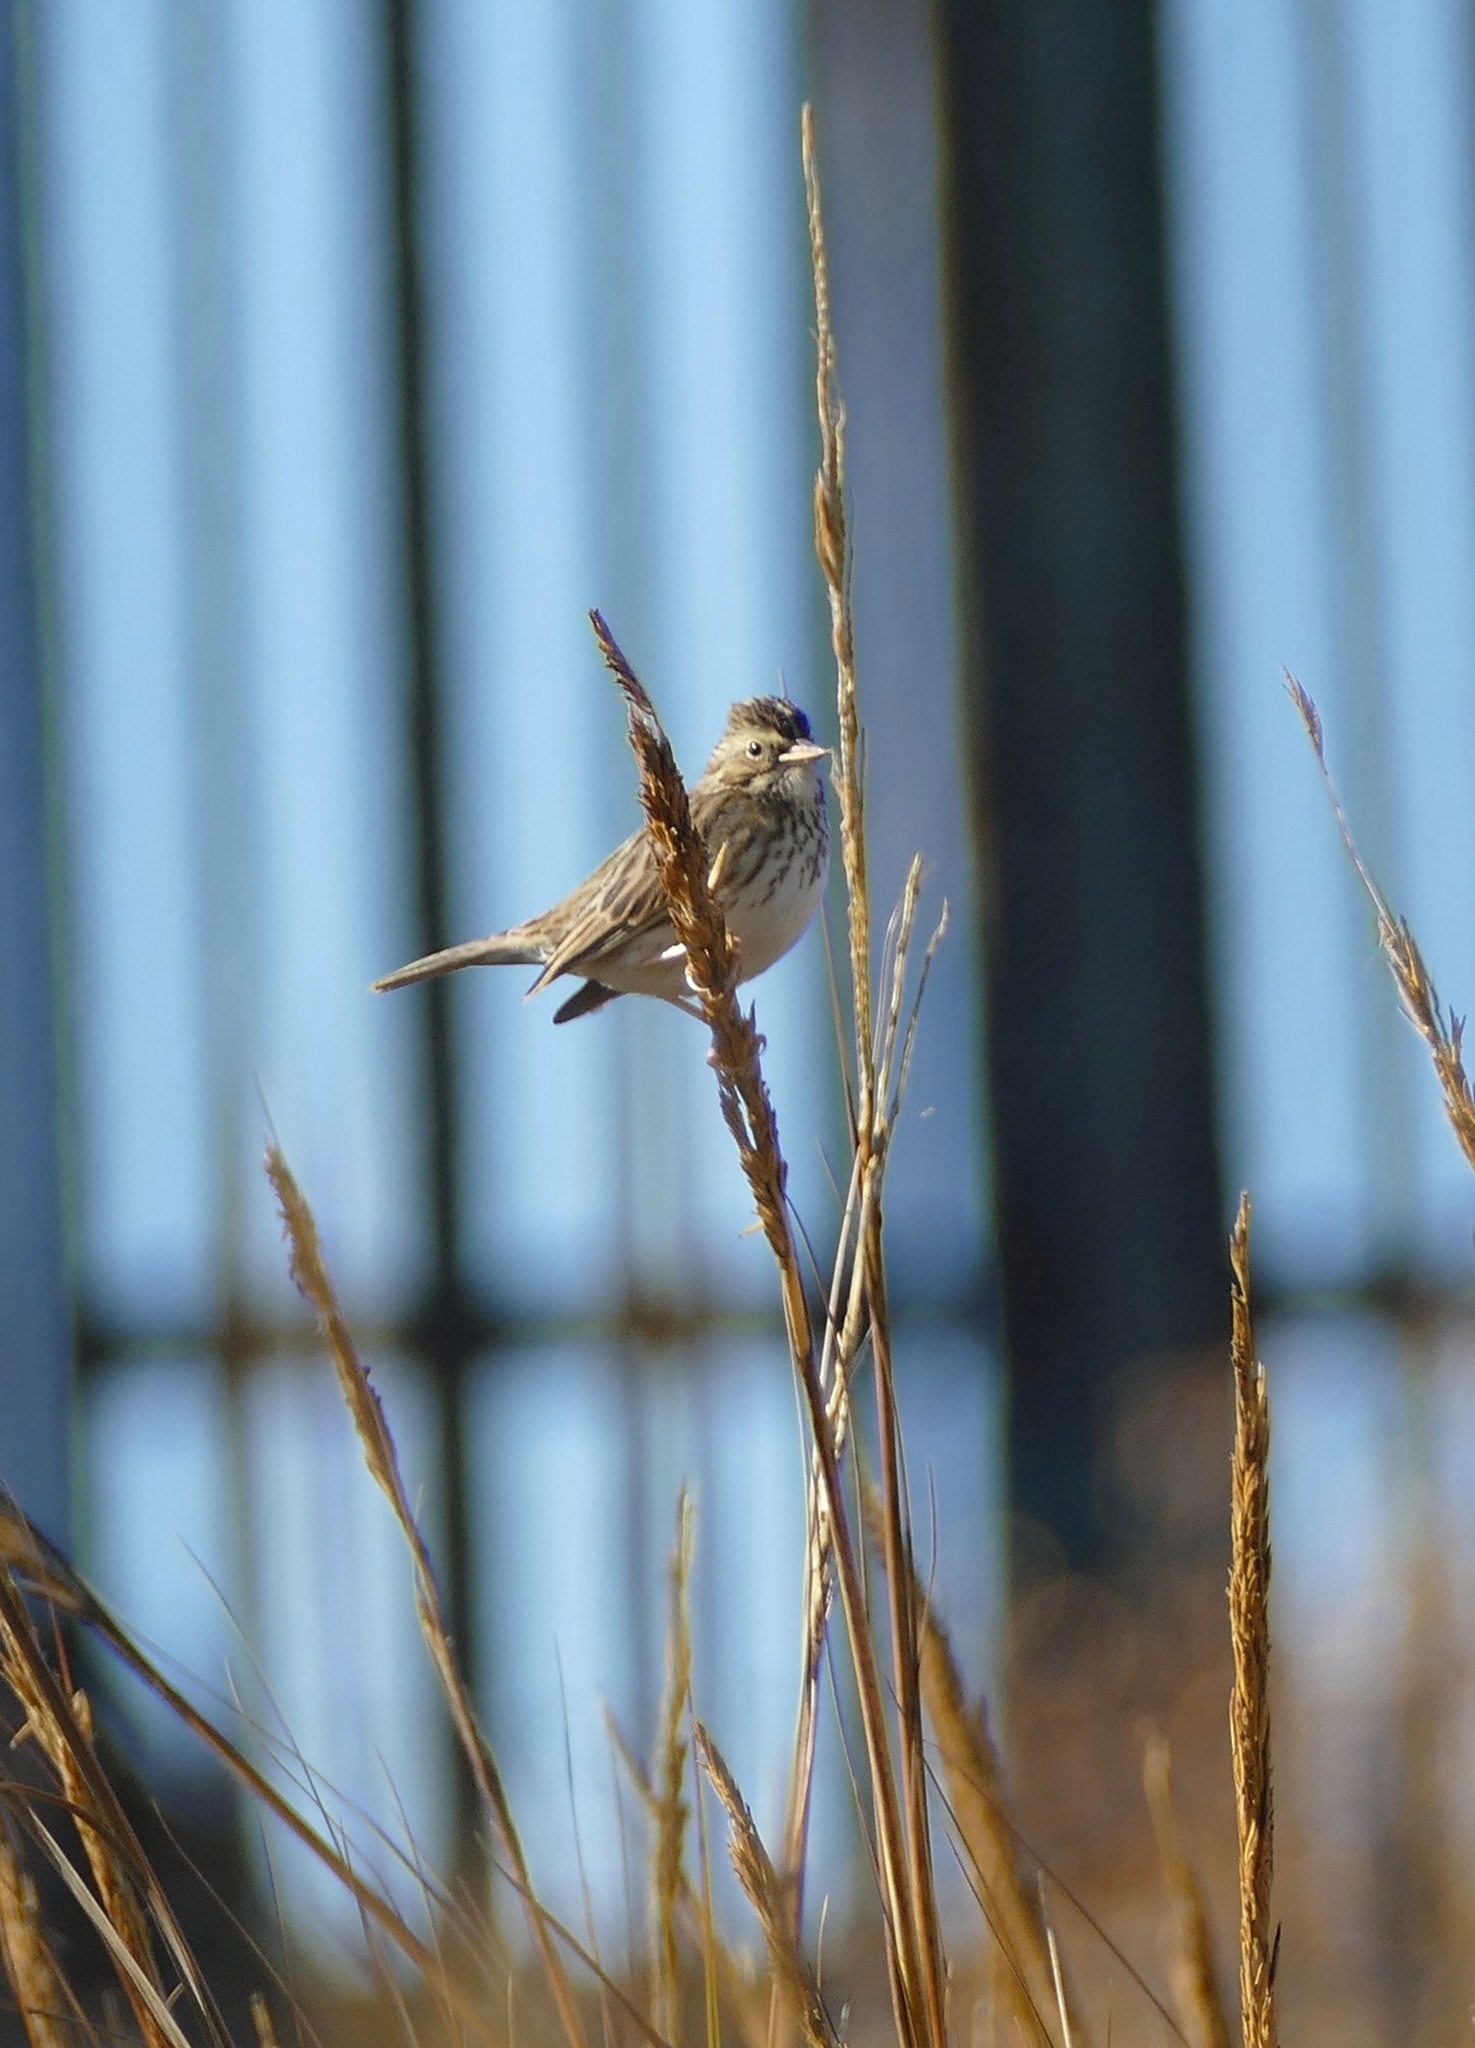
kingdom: Animalia
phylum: Chordata
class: Aves
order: Passeriformes
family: Passerellidae
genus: Passerculus
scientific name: Passerculus sandwichensis
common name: Savannah sparrow
